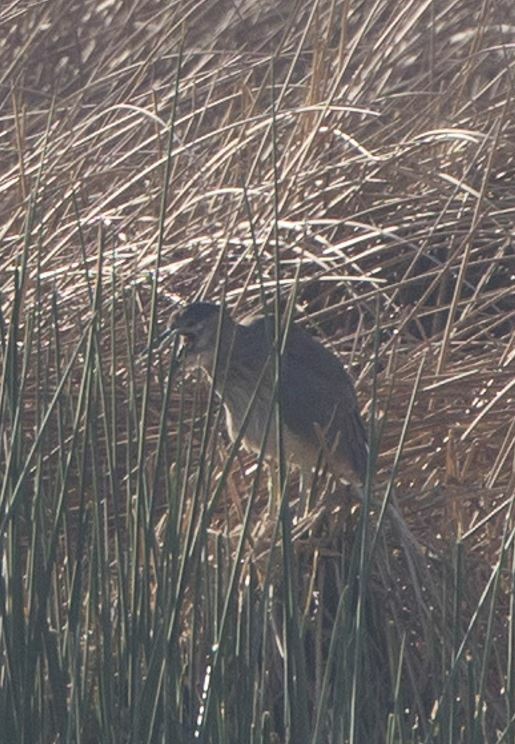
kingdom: Animalia
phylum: Chordata
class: Aves
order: Pelecaniformes
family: Ardeidae
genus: Nycticorax
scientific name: Nycticorax nycticorax
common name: Black-crowned night heron
